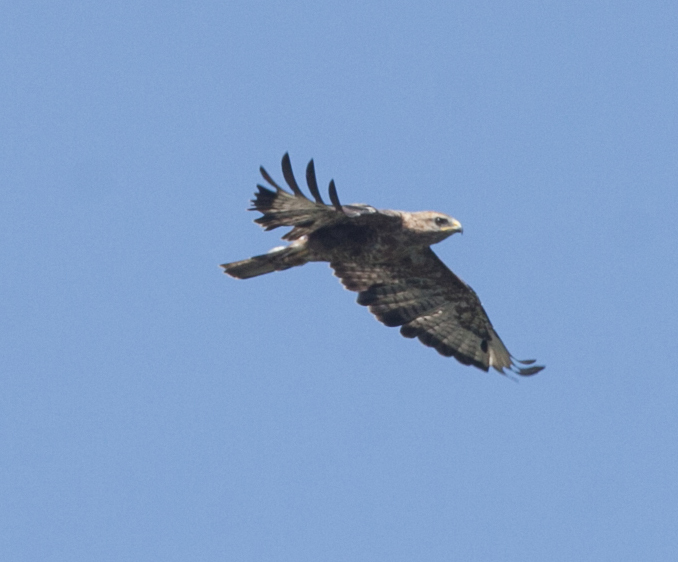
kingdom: Animalia
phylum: Chordata
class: Aves
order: Accipitriformes
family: Accipitridae
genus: Buteo
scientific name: Buteo buteo
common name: Common buzzard
